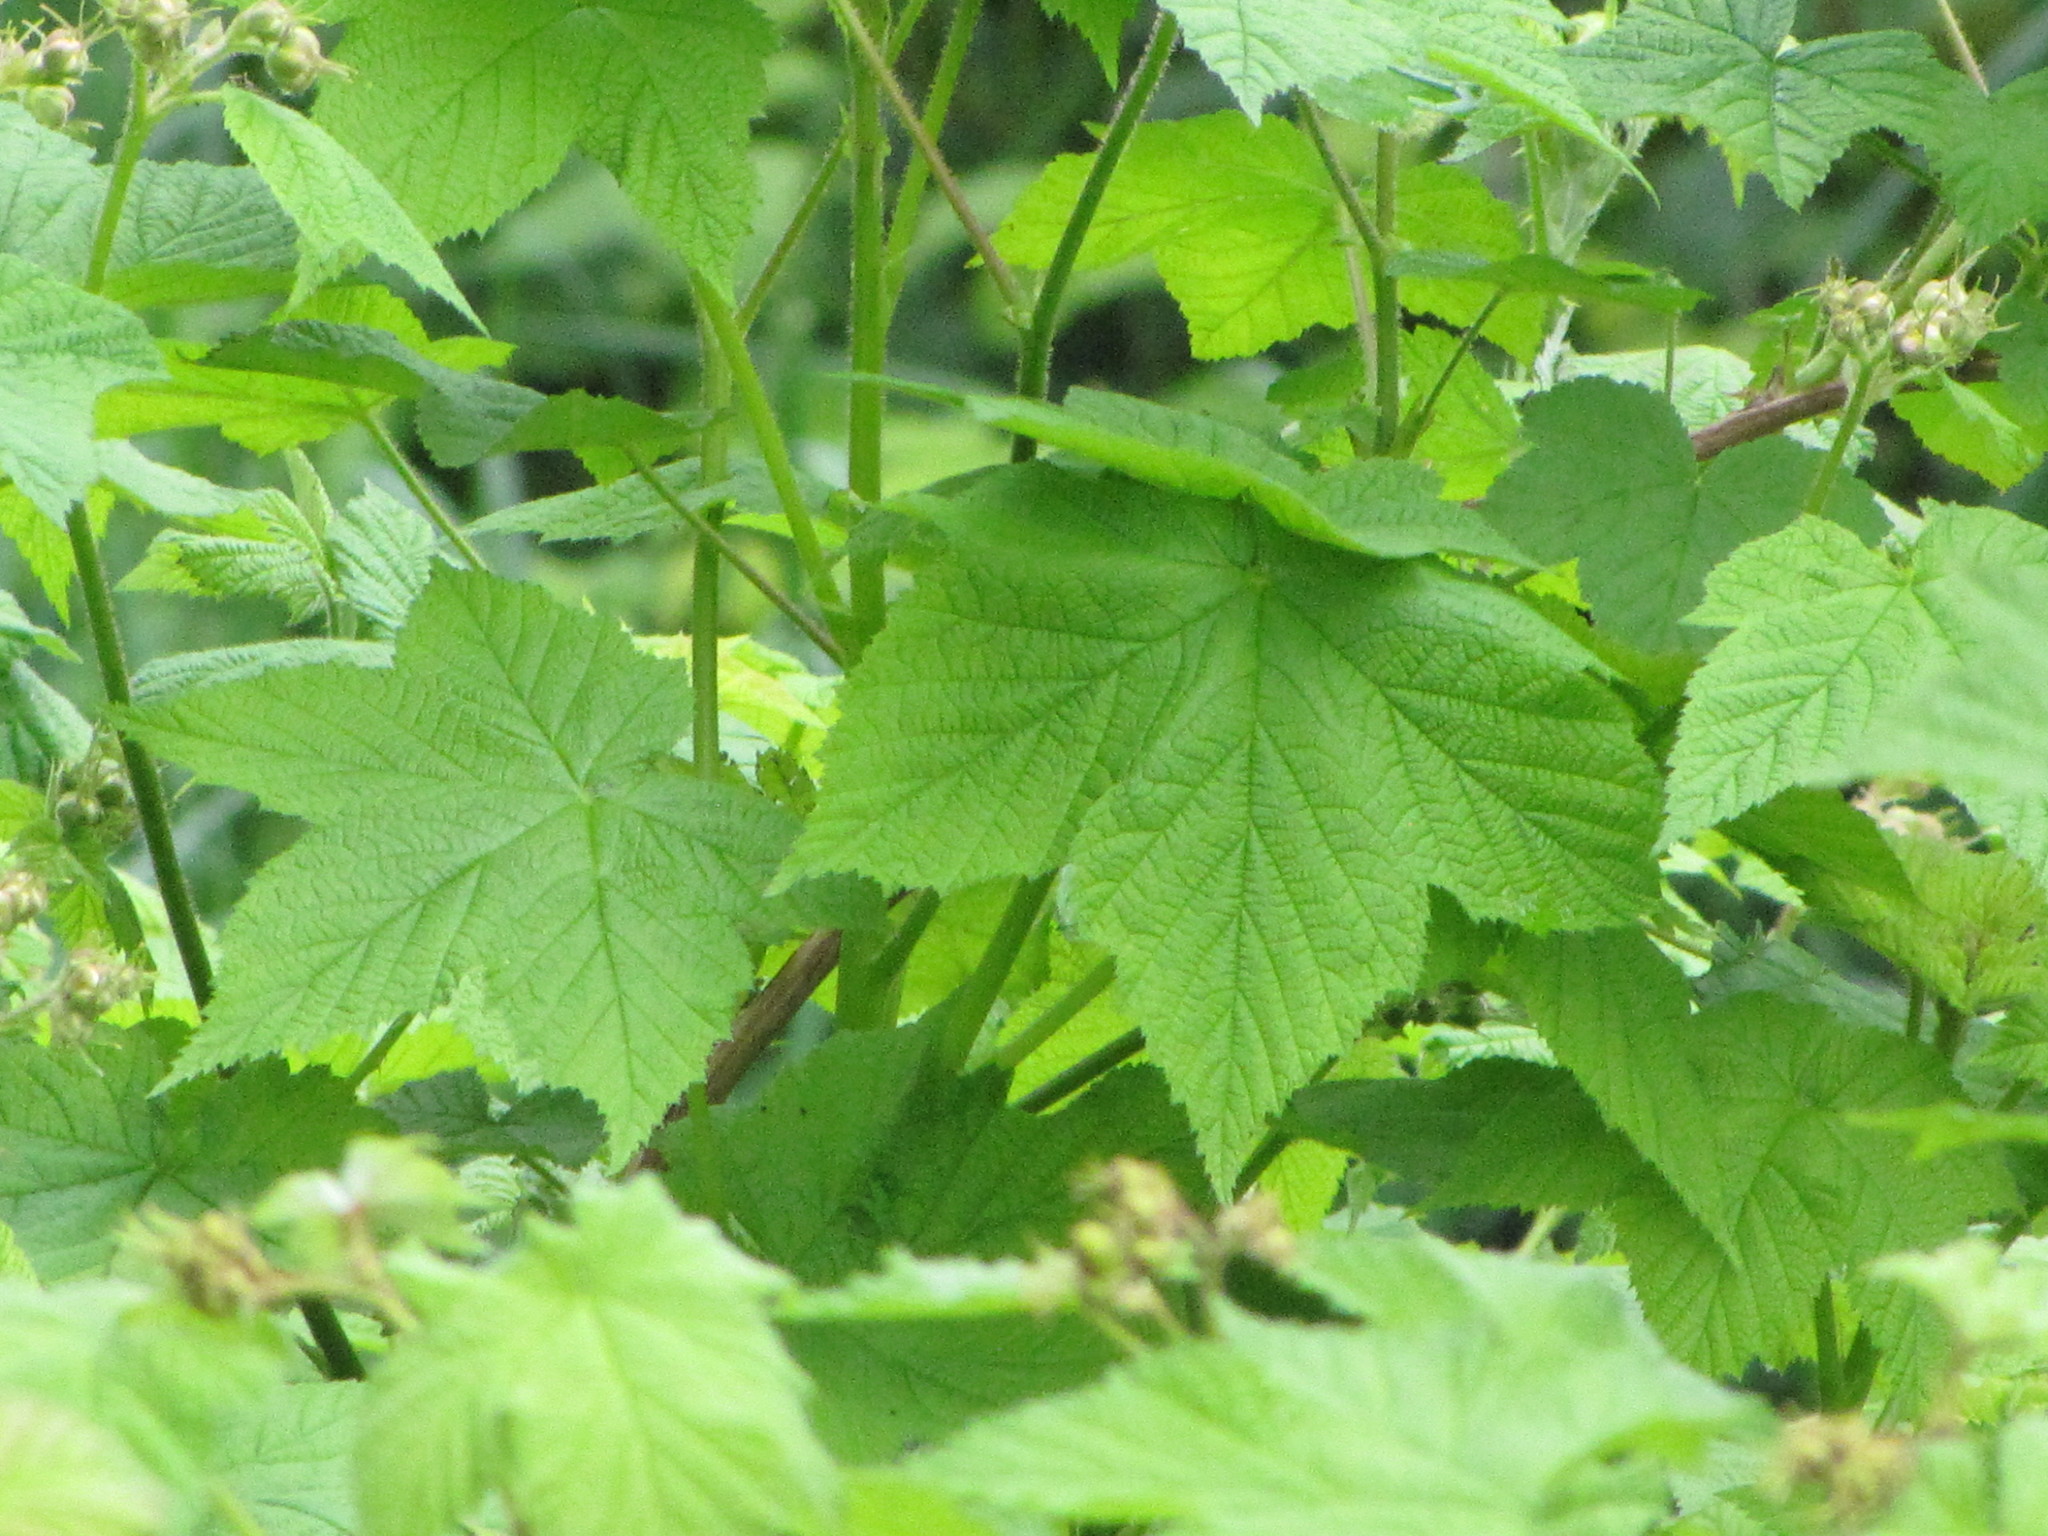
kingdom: Plantae
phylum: Tracheophyta
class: Magnoliopsida
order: Rosales
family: Rosaceae
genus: Rubus
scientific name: Rubus parviflorus
